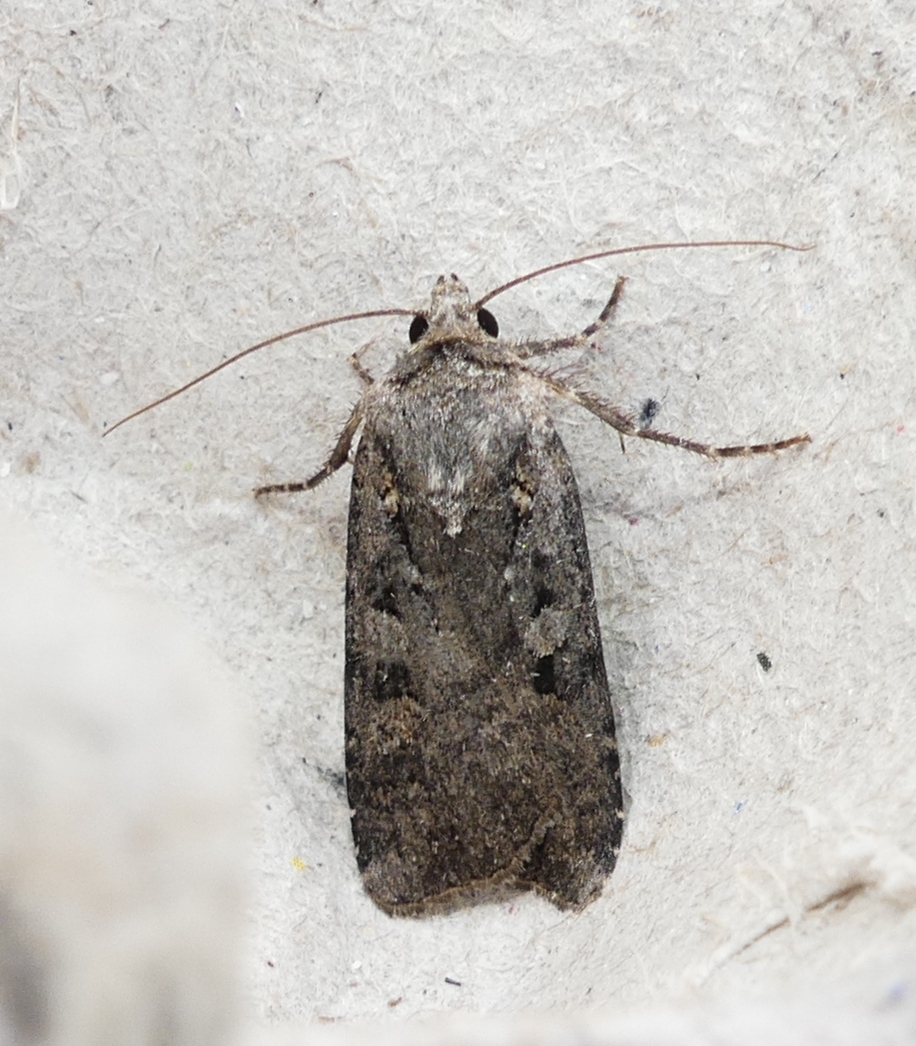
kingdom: Animalia
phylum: Arthropoda
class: Insecta
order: Lepidoptera
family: Noctuidae
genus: Euxoa
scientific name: Euxoa tessellata
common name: Striped cutworm
